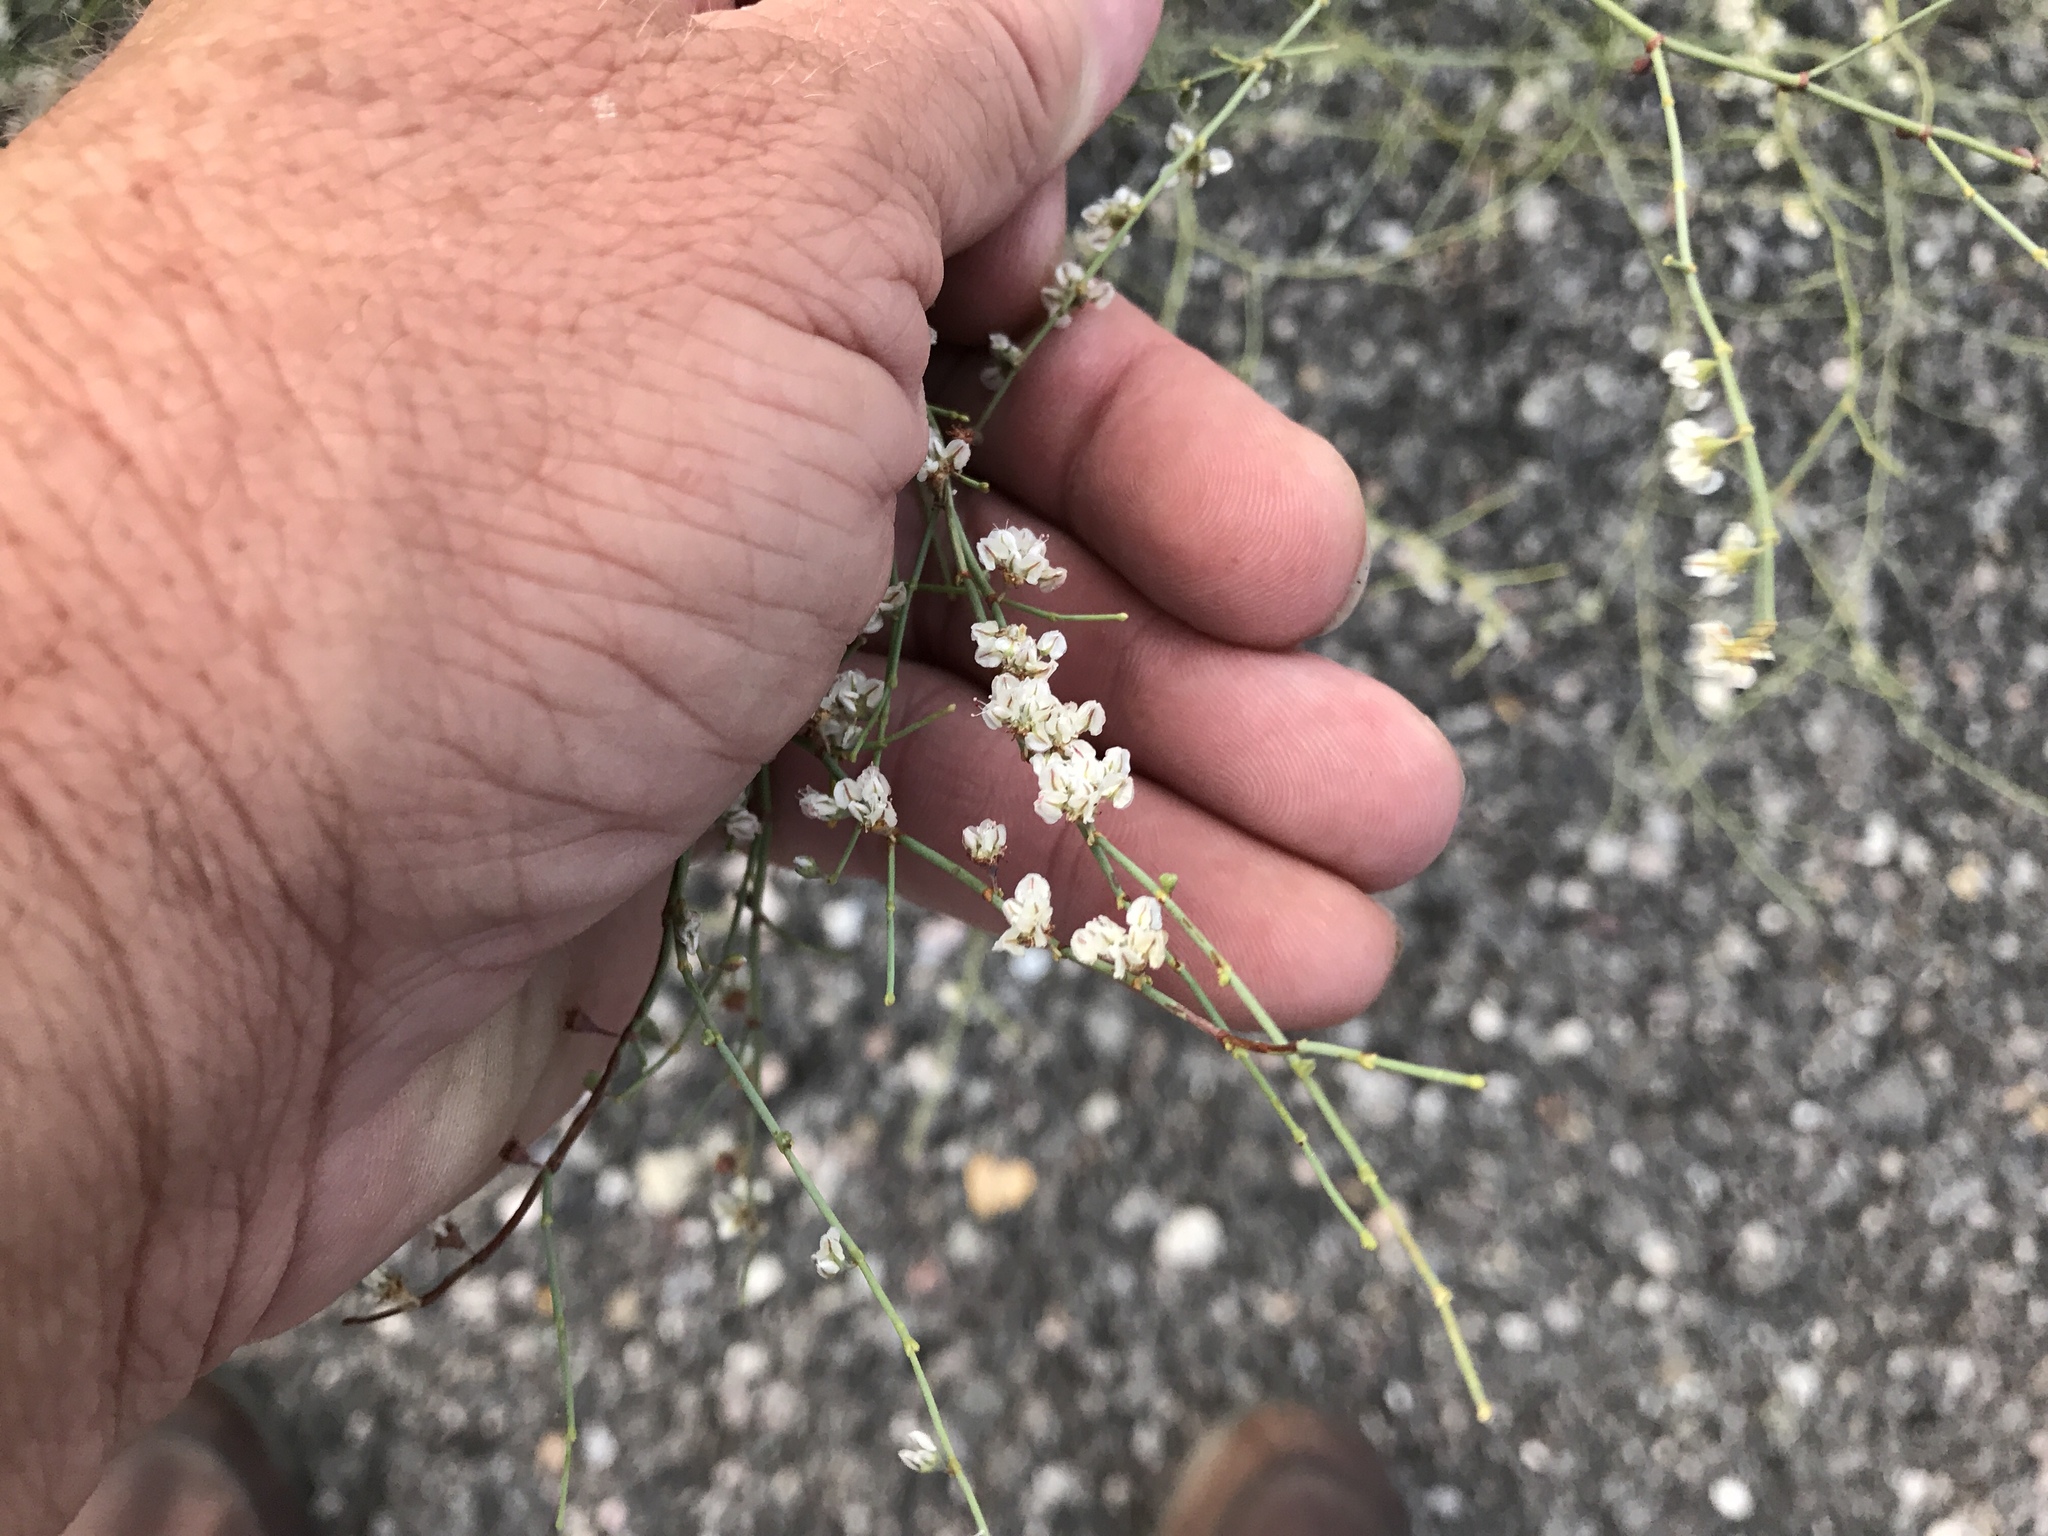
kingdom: Plantae
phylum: Tracheophyta
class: Magnoliopsida
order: Caryophyllales
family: Polygonaceae
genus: Eriogonum
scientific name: Eriogonum deflexum
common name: Skeleton-weed
